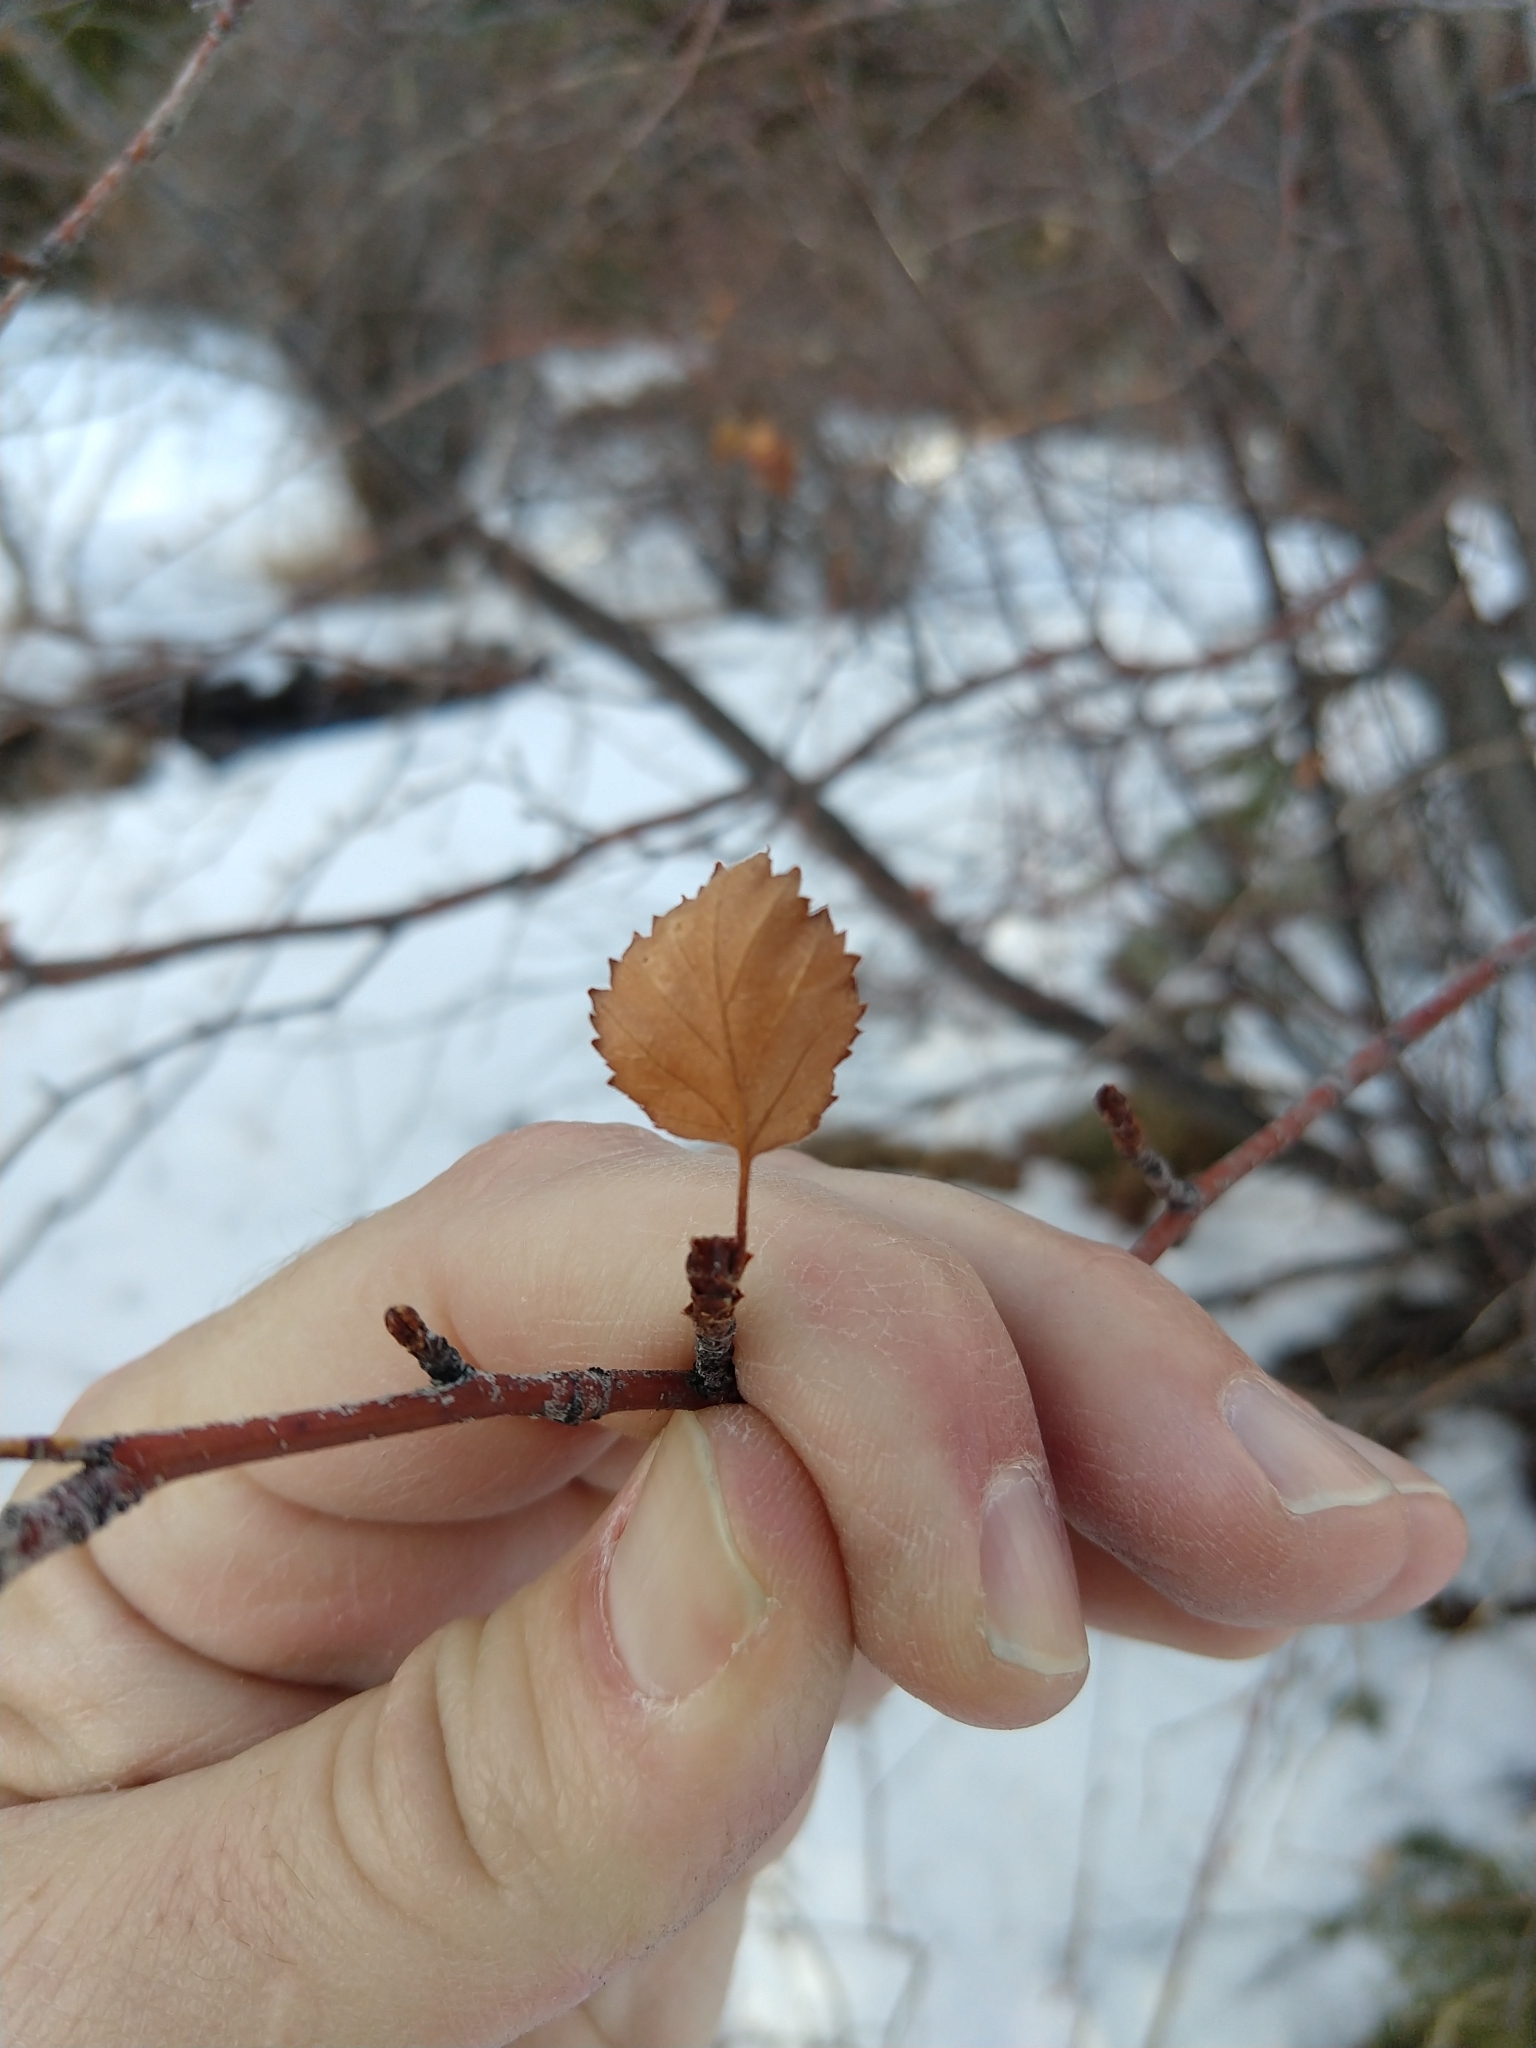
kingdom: Plantae
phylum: Tracheophyta
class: Magnoliopsida
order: Fagales
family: Betulaceae
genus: Betula
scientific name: Betula occidentalis
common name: River birch
